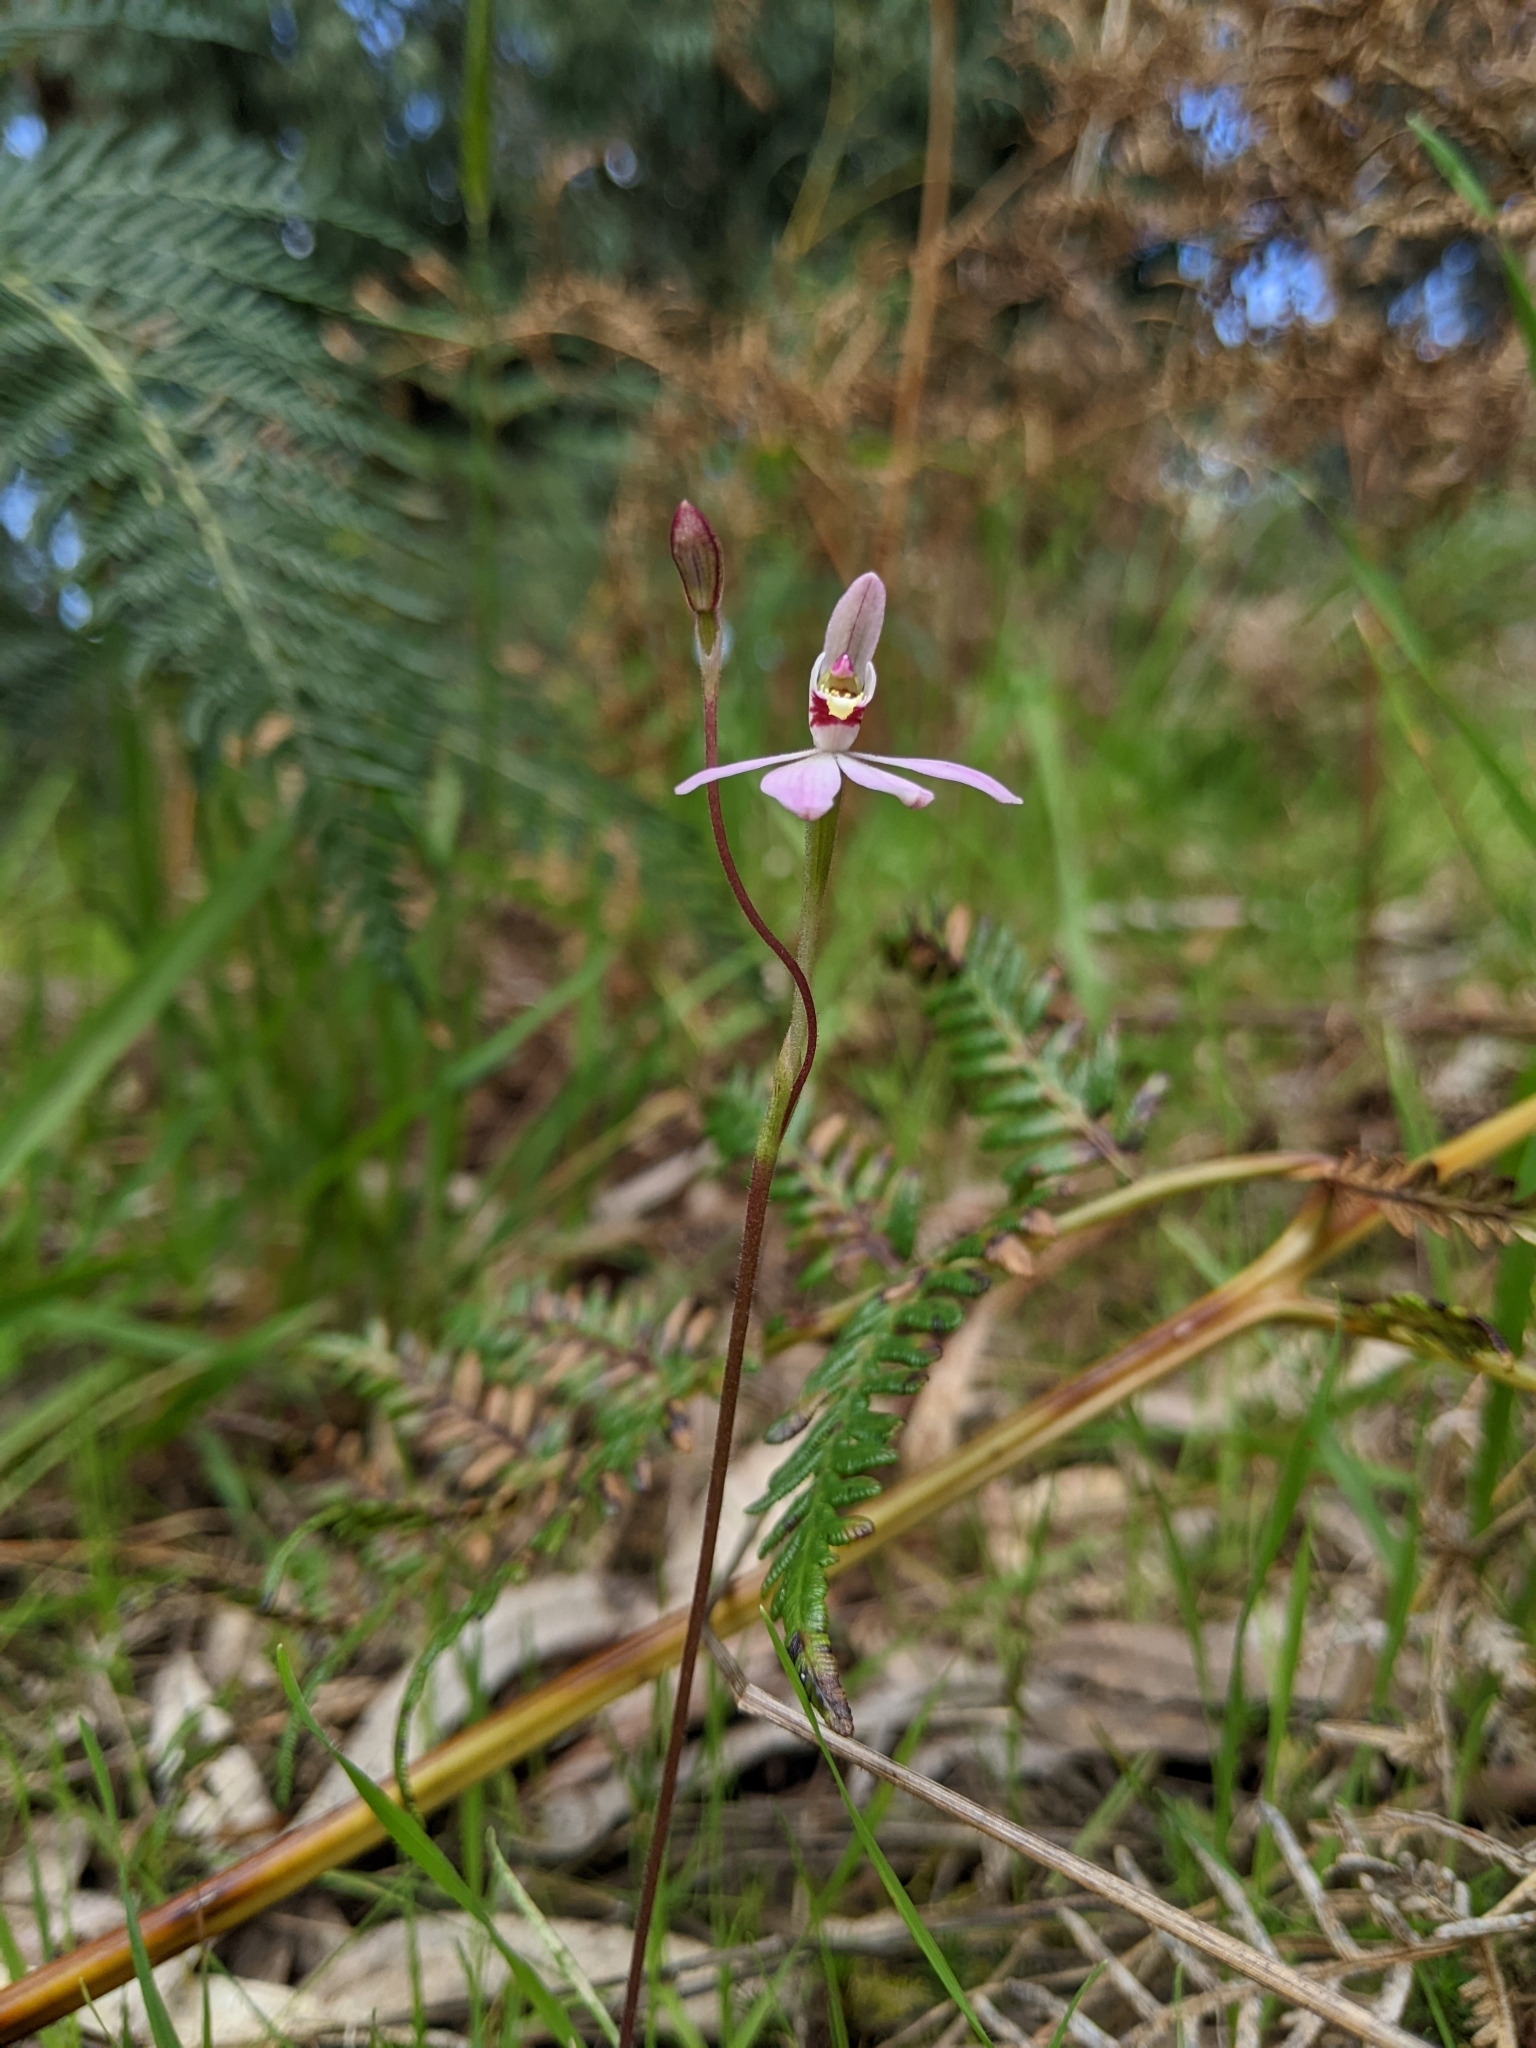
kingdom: Plantae
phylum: Tracheophyta
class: Liliopsida
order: Asparagales
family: Orchidaceae
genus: Caladenia
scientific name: Caladenia carnea
